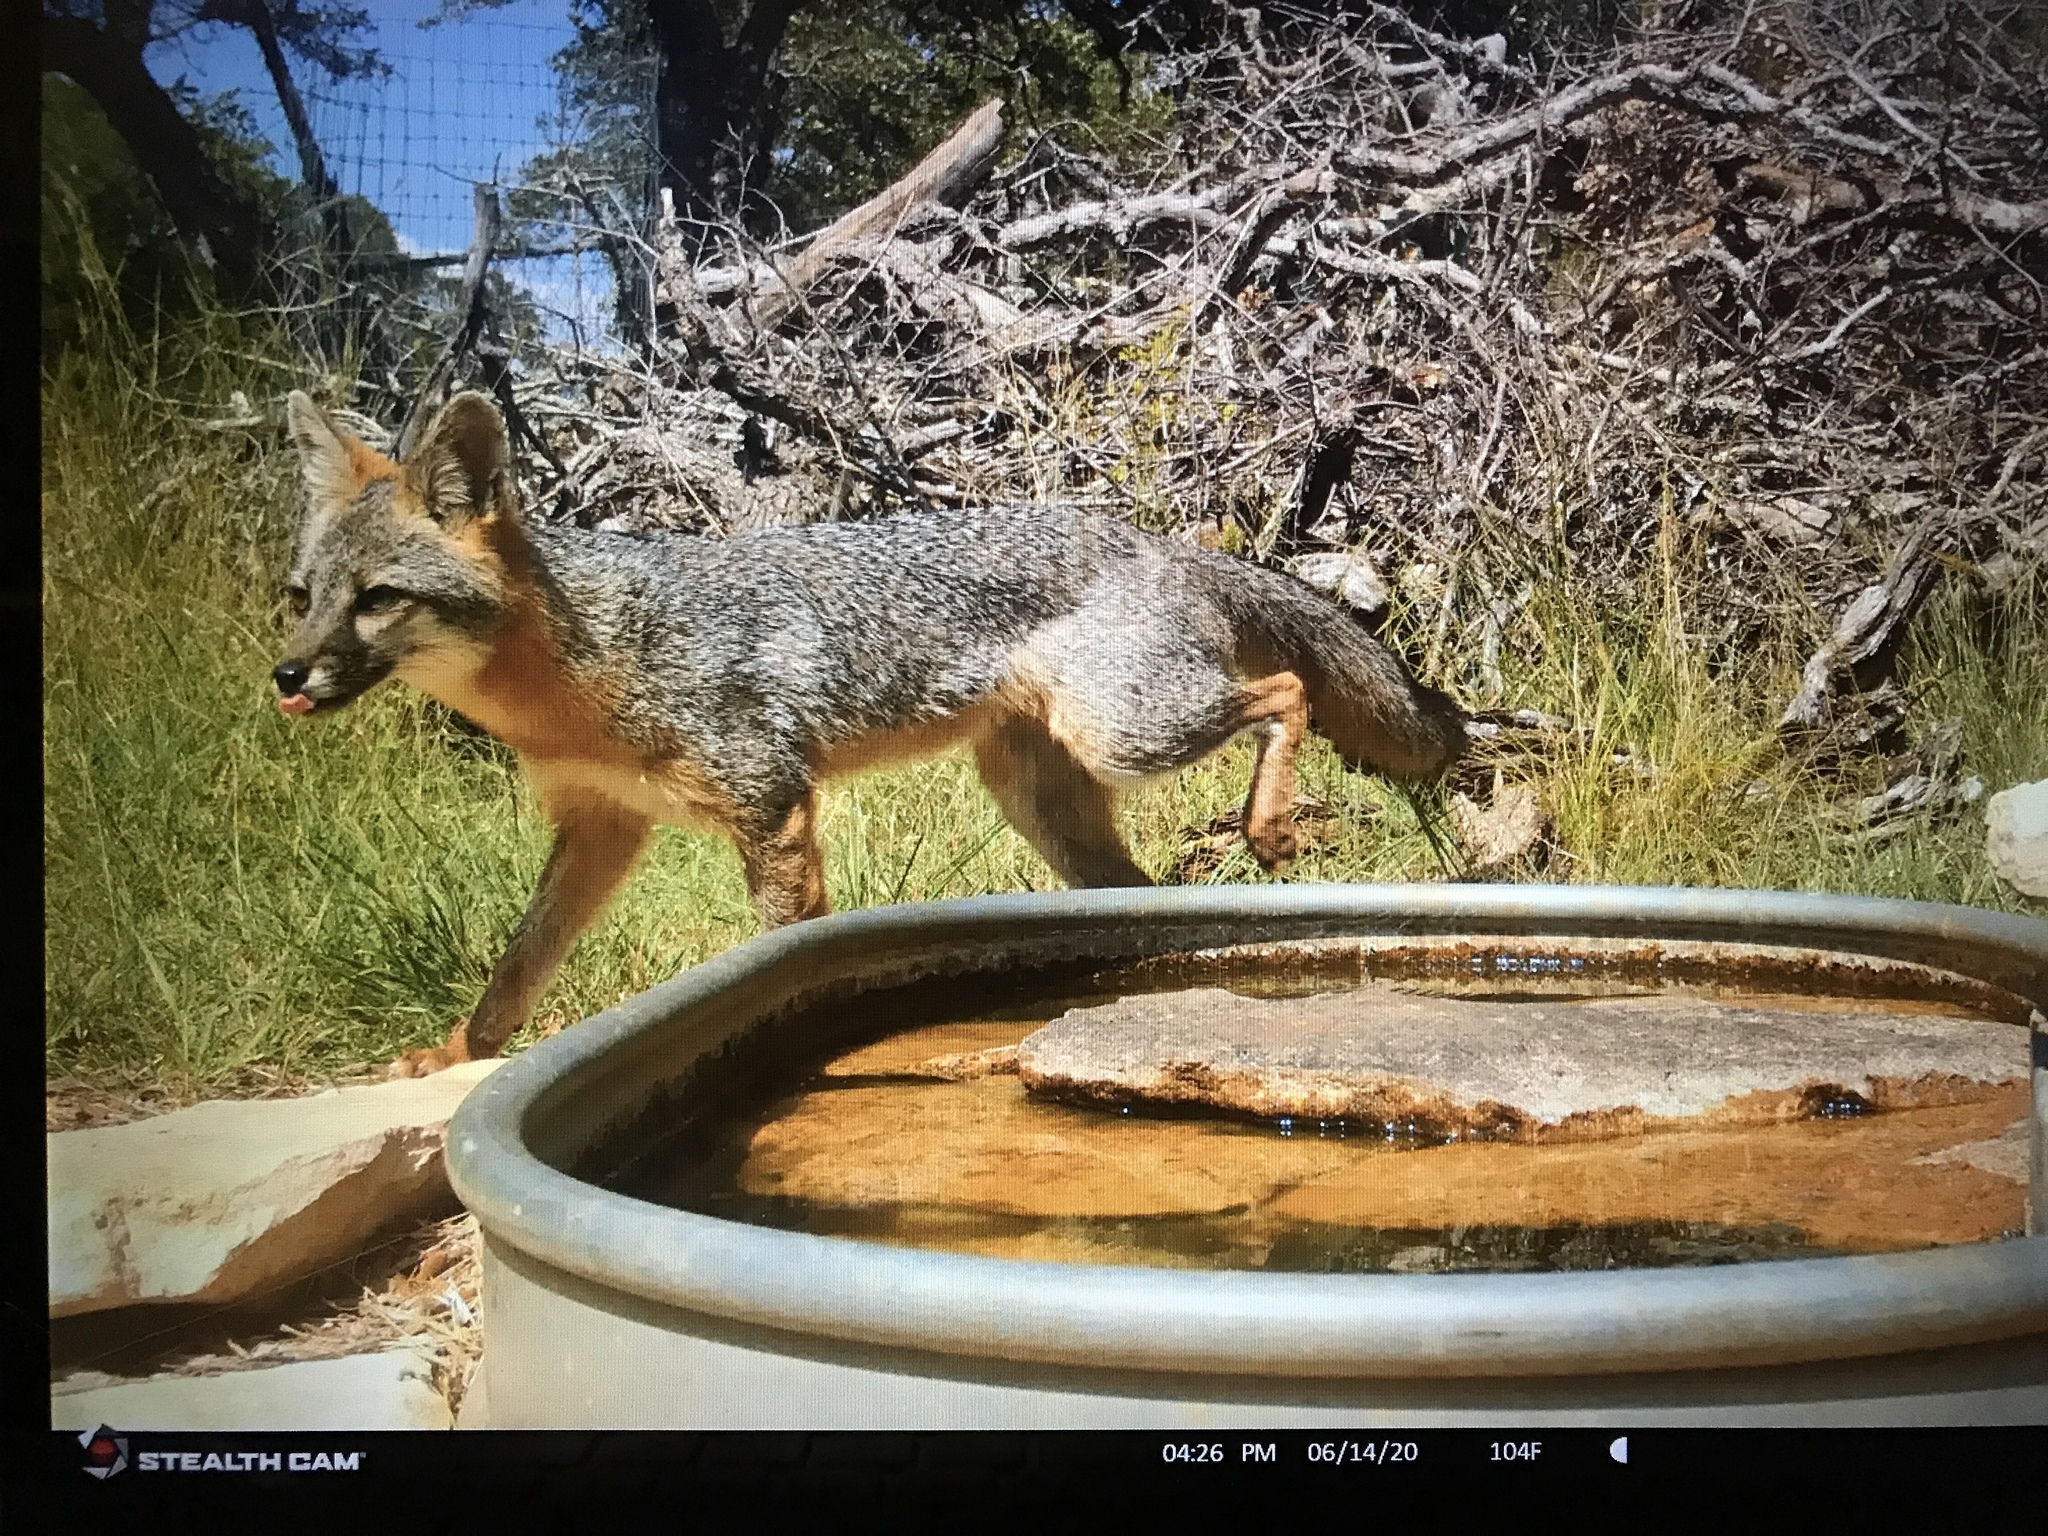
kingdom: Animalia
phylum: Chordata
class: Mammalia
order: Carnivora
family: Canidae
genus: Urocyon
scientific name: Urocyon cinereoargenteus
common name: Gray fox
